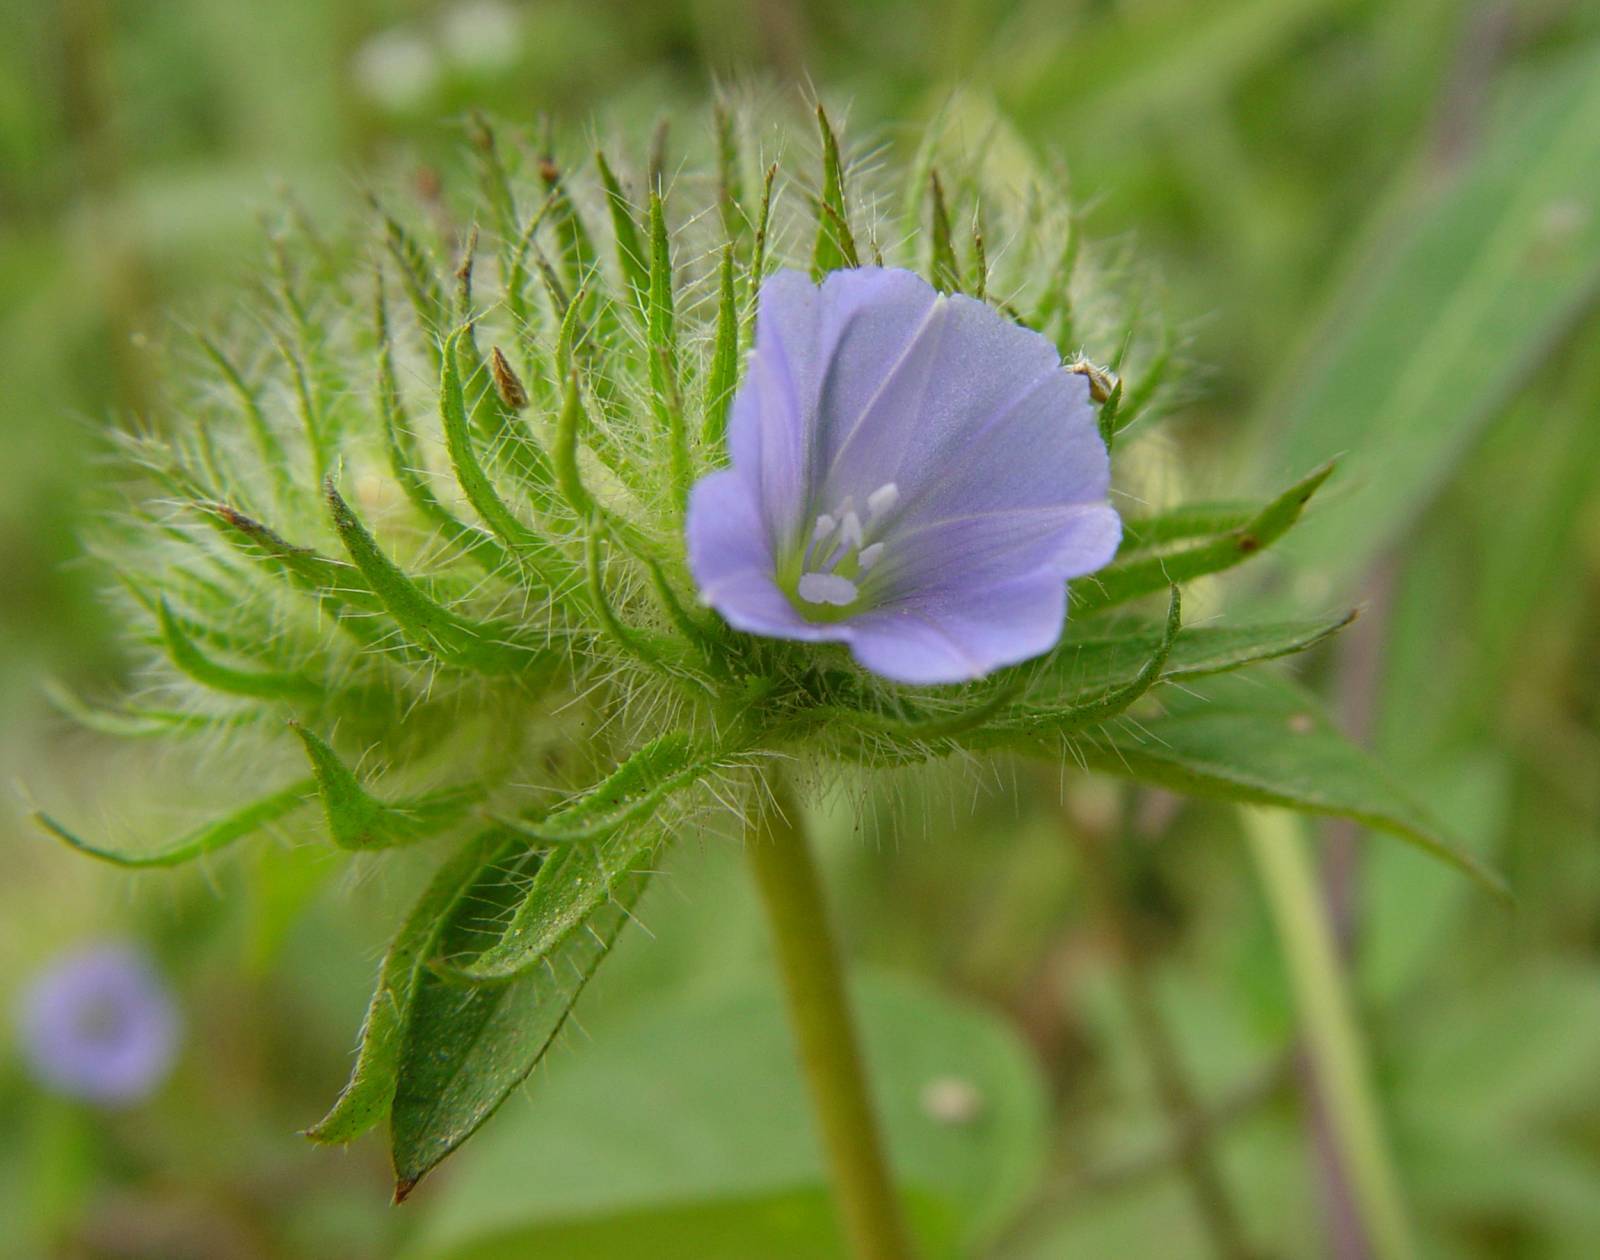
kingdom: Plantae
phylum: Tracheophyta
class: Magnoliopsida
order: Solanales
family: Convolvulaceae
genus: Jacquemontia
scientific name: Jacquemontia tamnifolia
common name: Hairy clustervine
